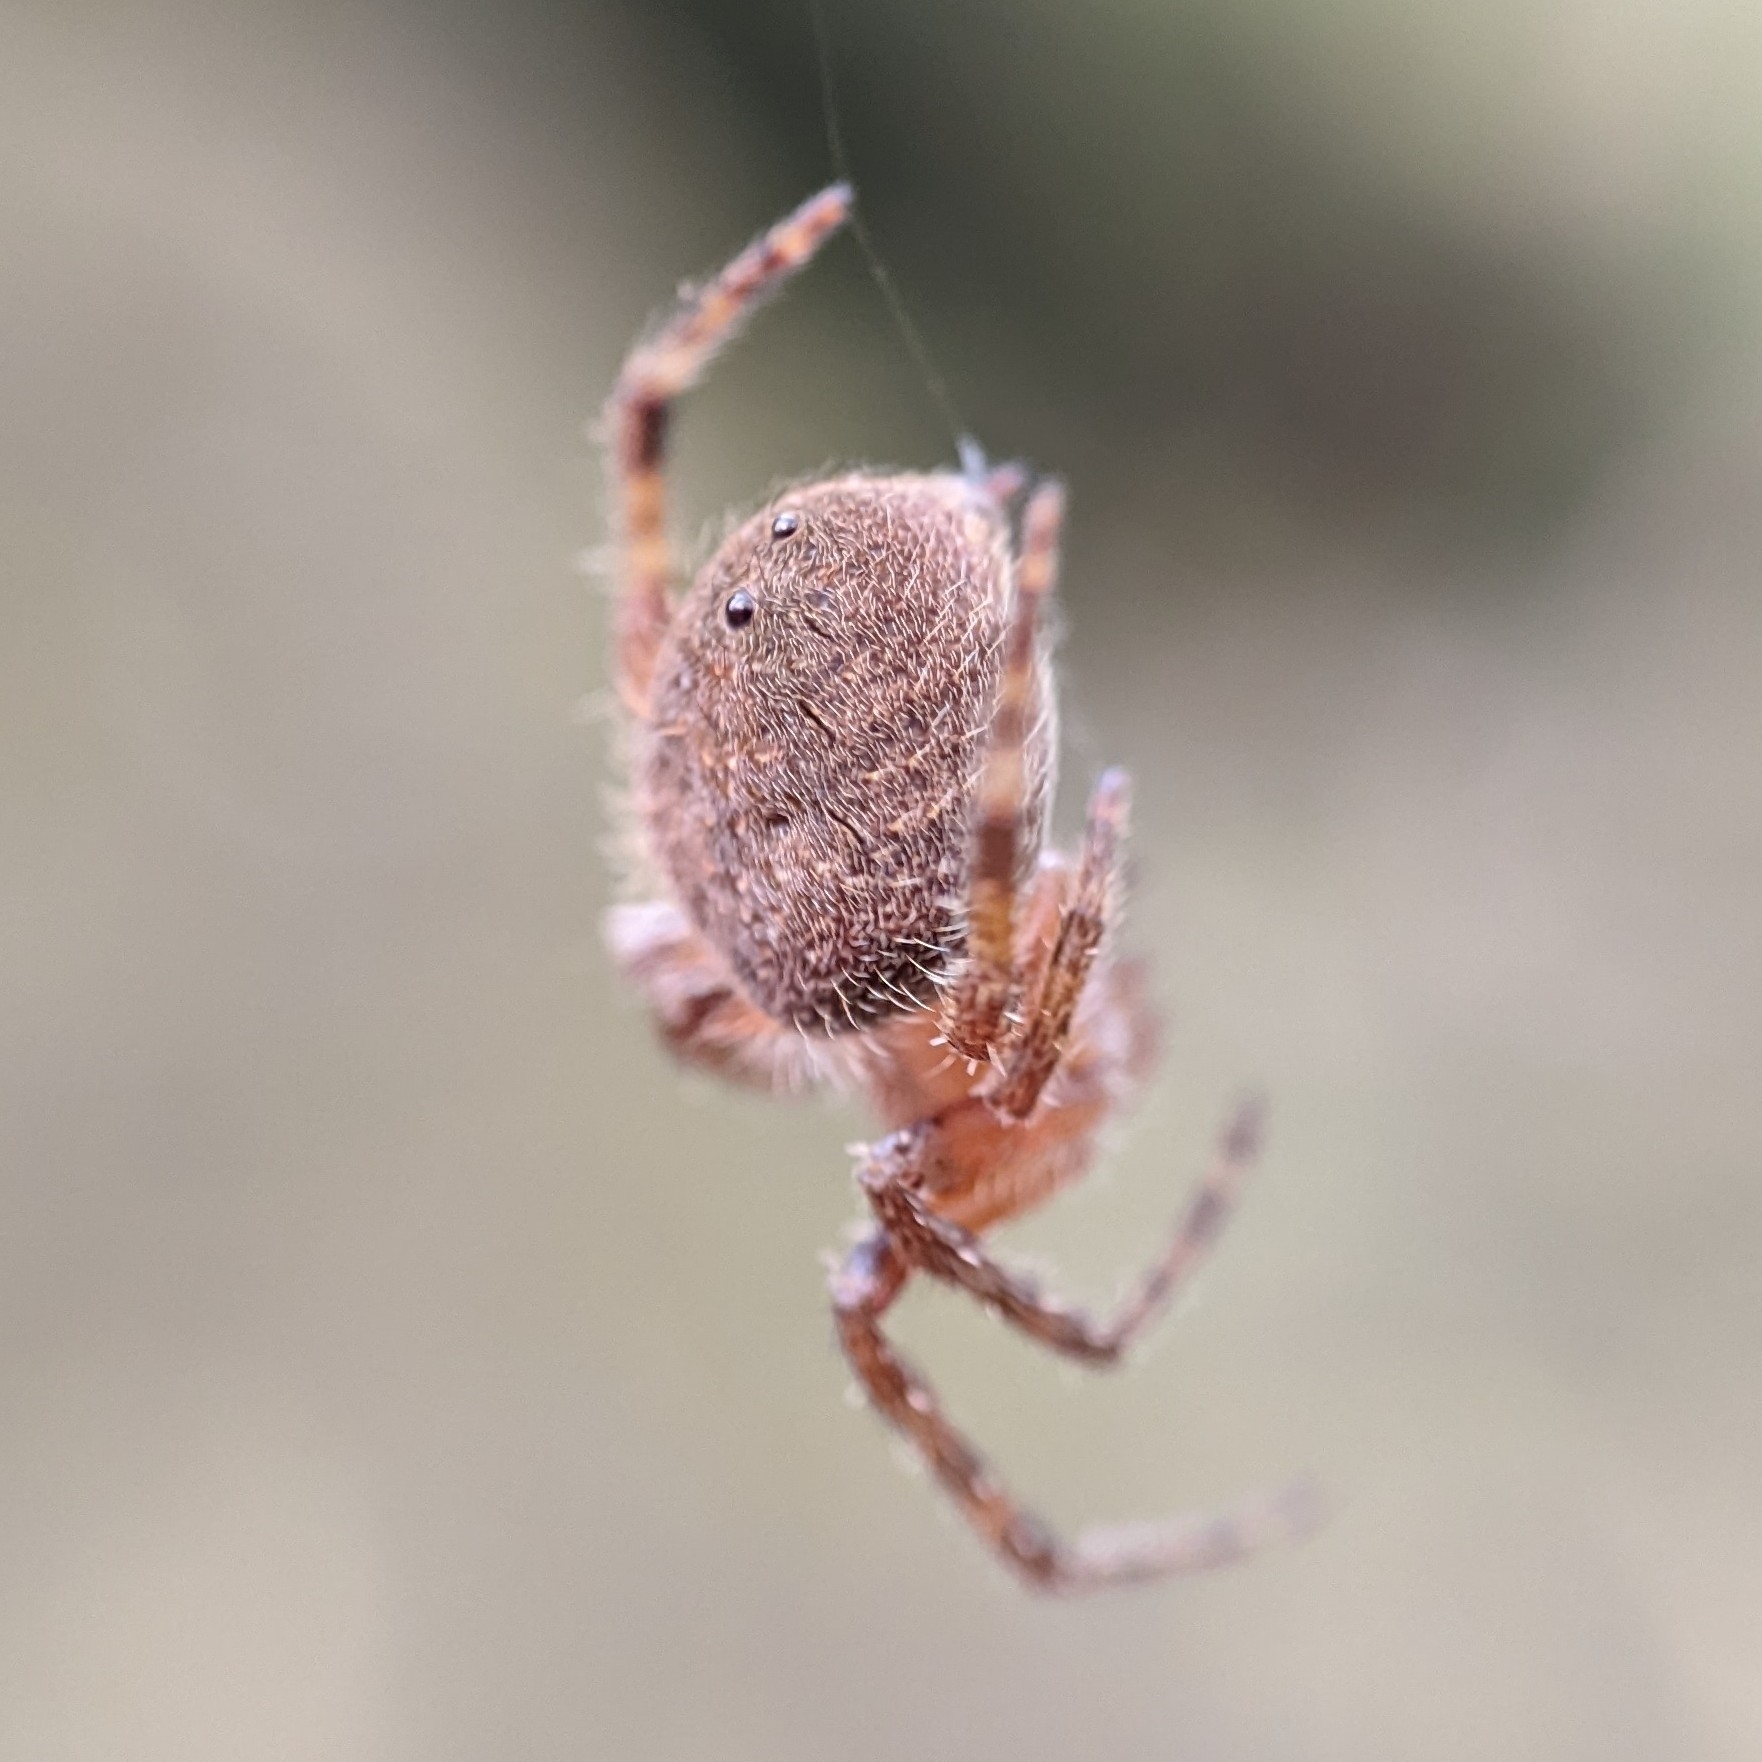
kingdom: Animalia
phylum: Arthropoda
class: Arachnida
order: Araneae
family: Araneidae
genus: Eriophora
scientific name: Eriophora ravilla
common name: Orb weavers
